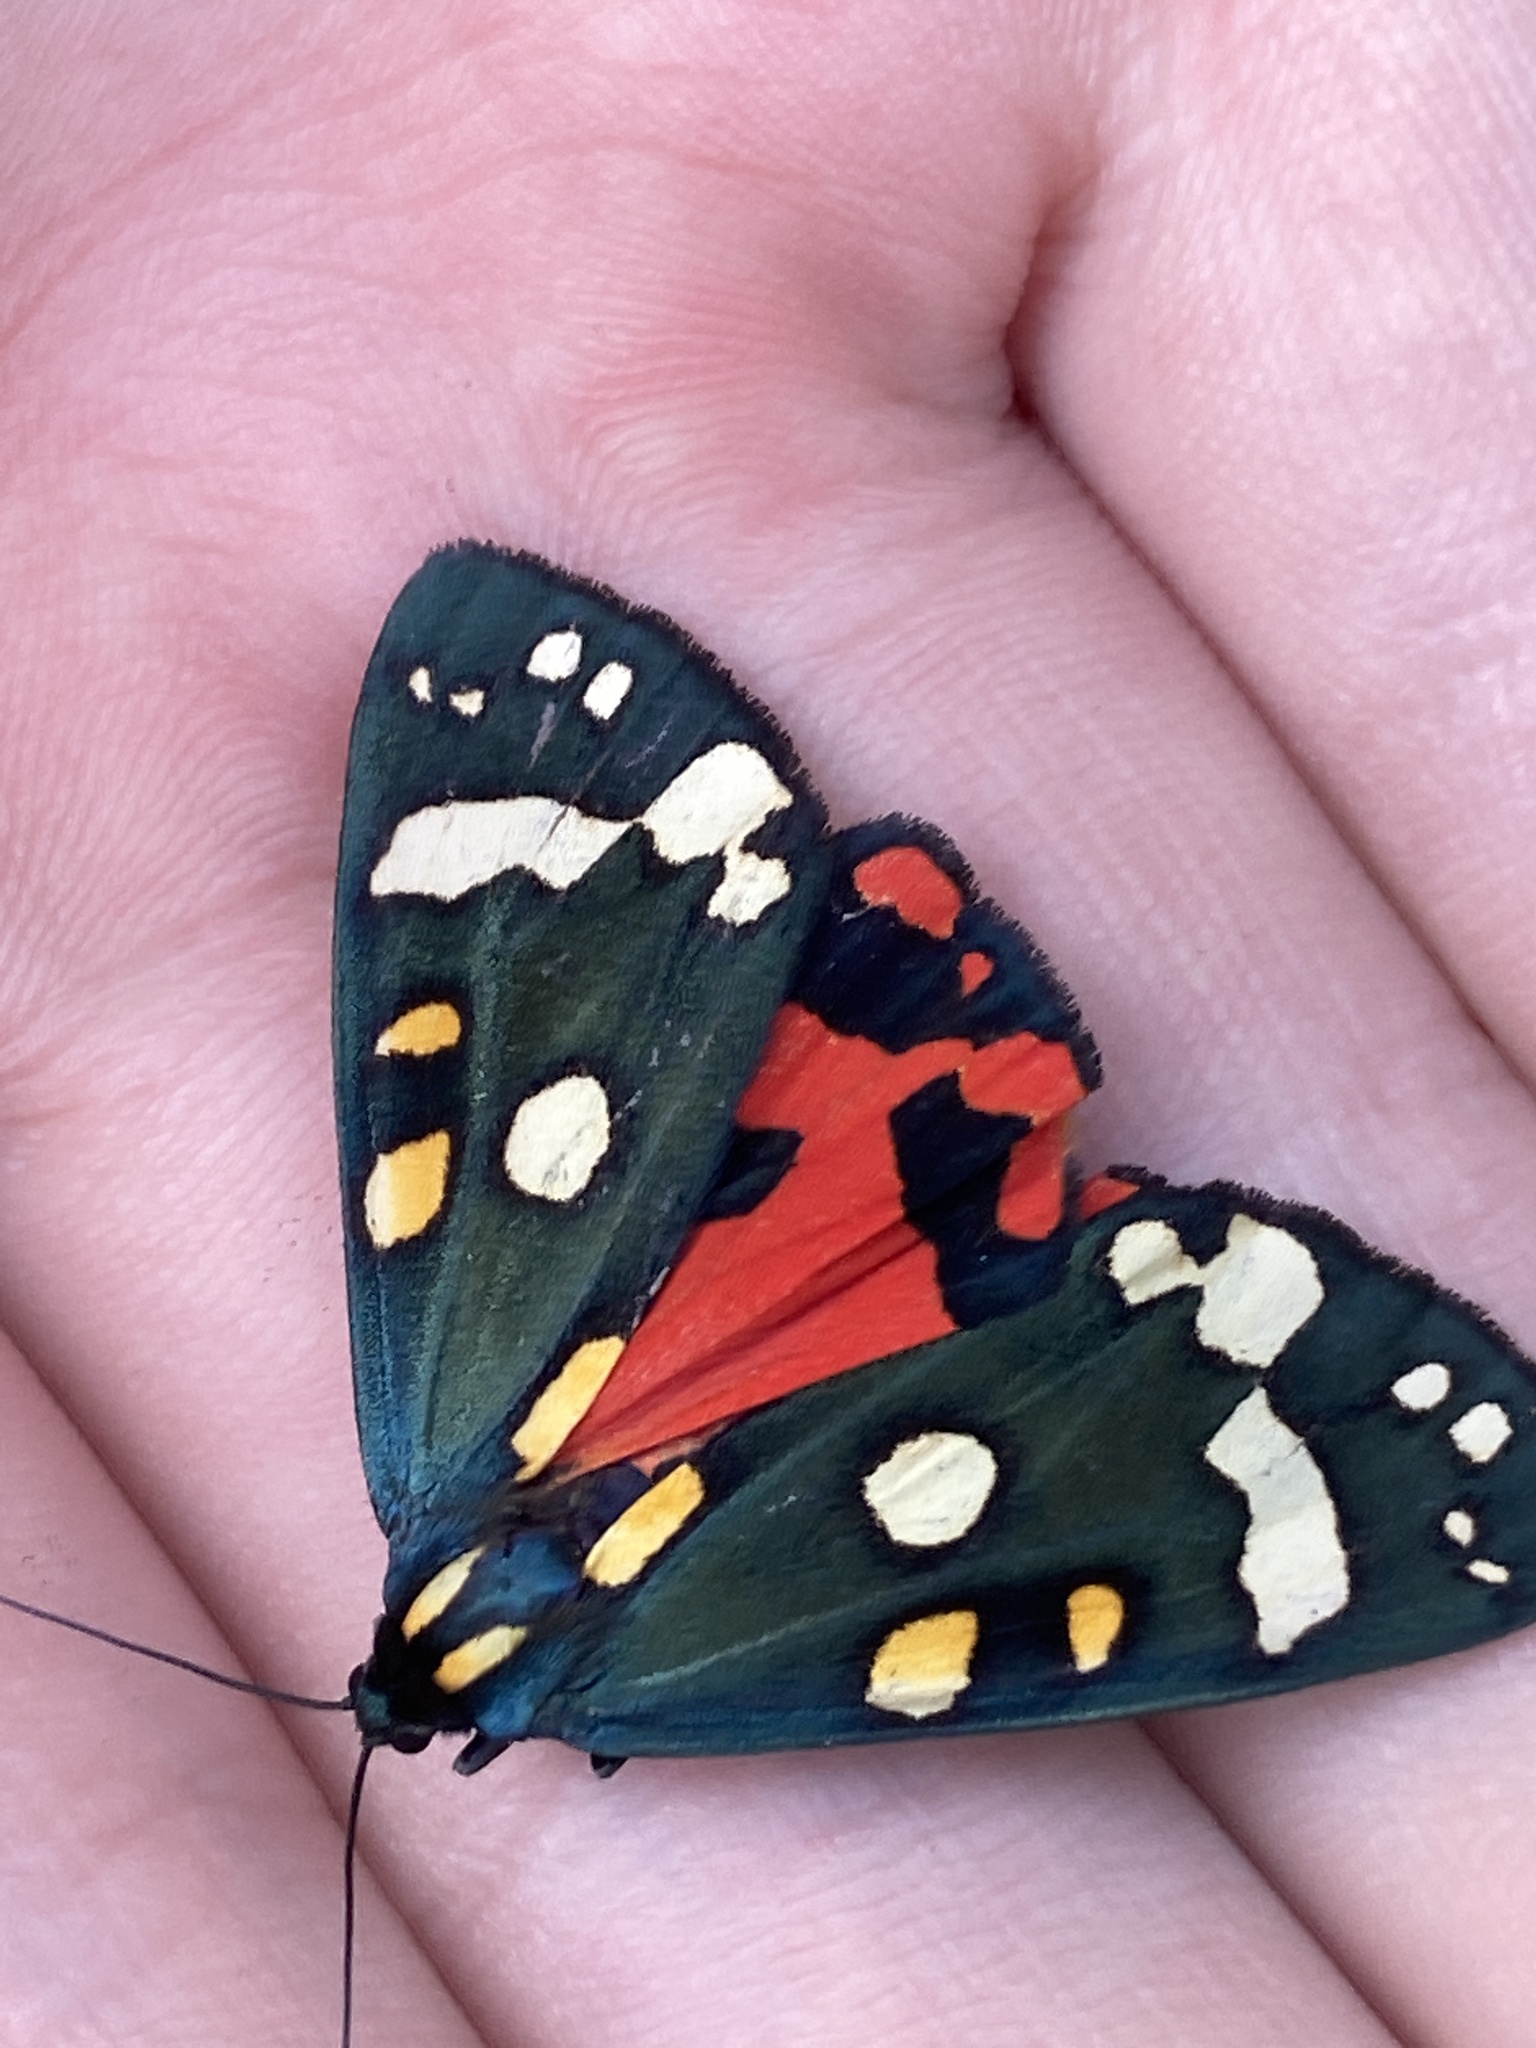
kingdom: Animalia
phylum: Arthropoda
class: Insecta
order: Lepidoptera
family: Erebidae
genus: Callimorpha
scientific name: Callimorpha dominula
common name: Scarlet tiger
